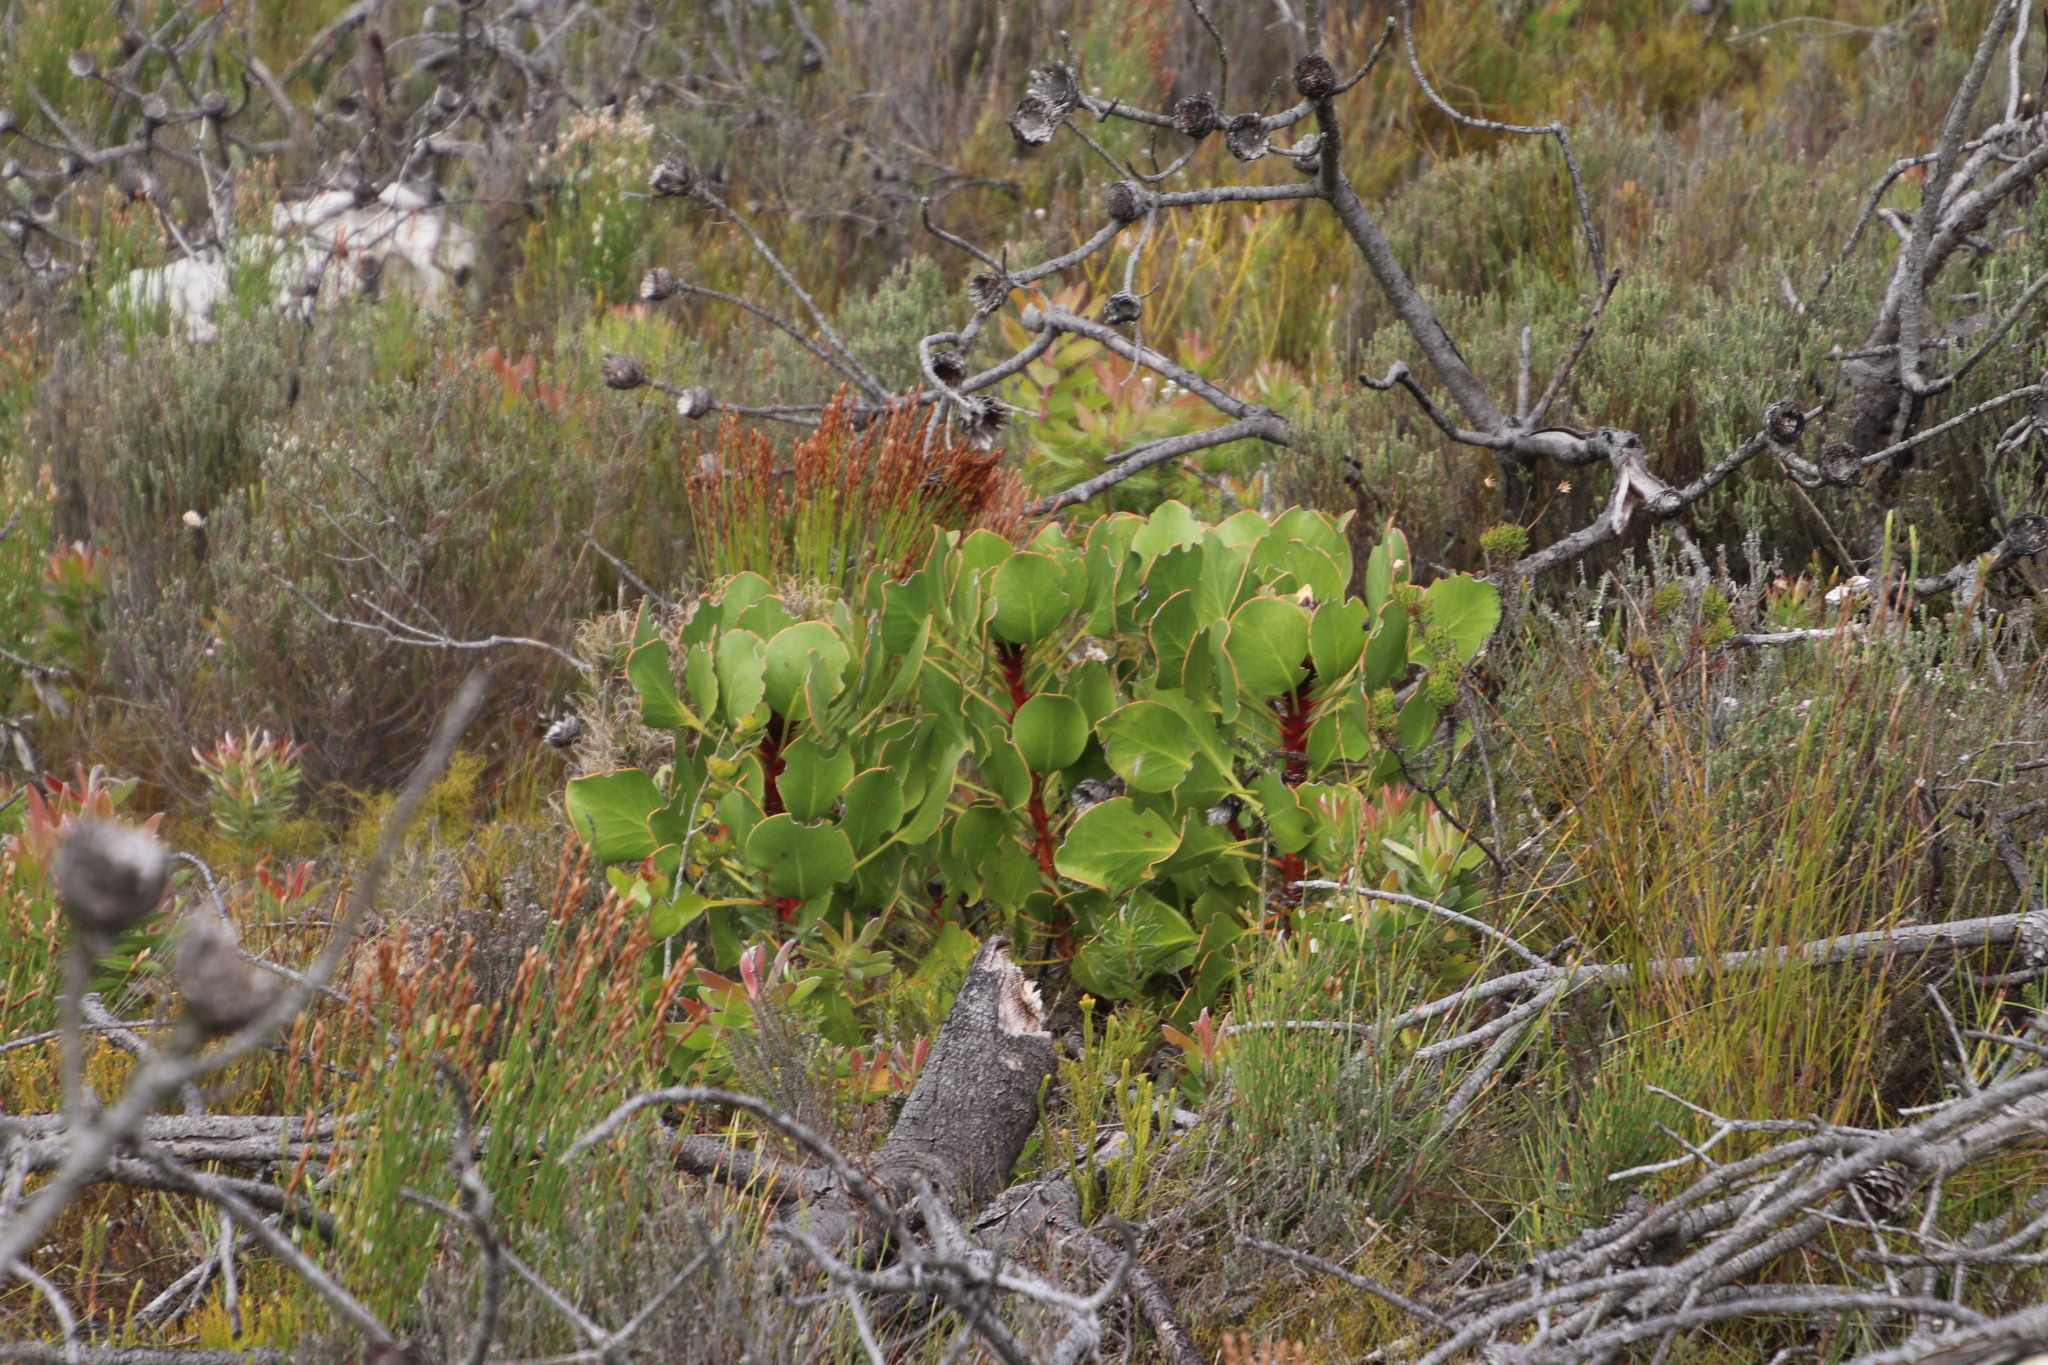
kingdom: Plantae
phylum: Tracheophyta
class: Magnoliopsida
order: Proteales
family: Proteaceae
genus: Protea
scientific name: Protea cynaroides
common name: King protea
